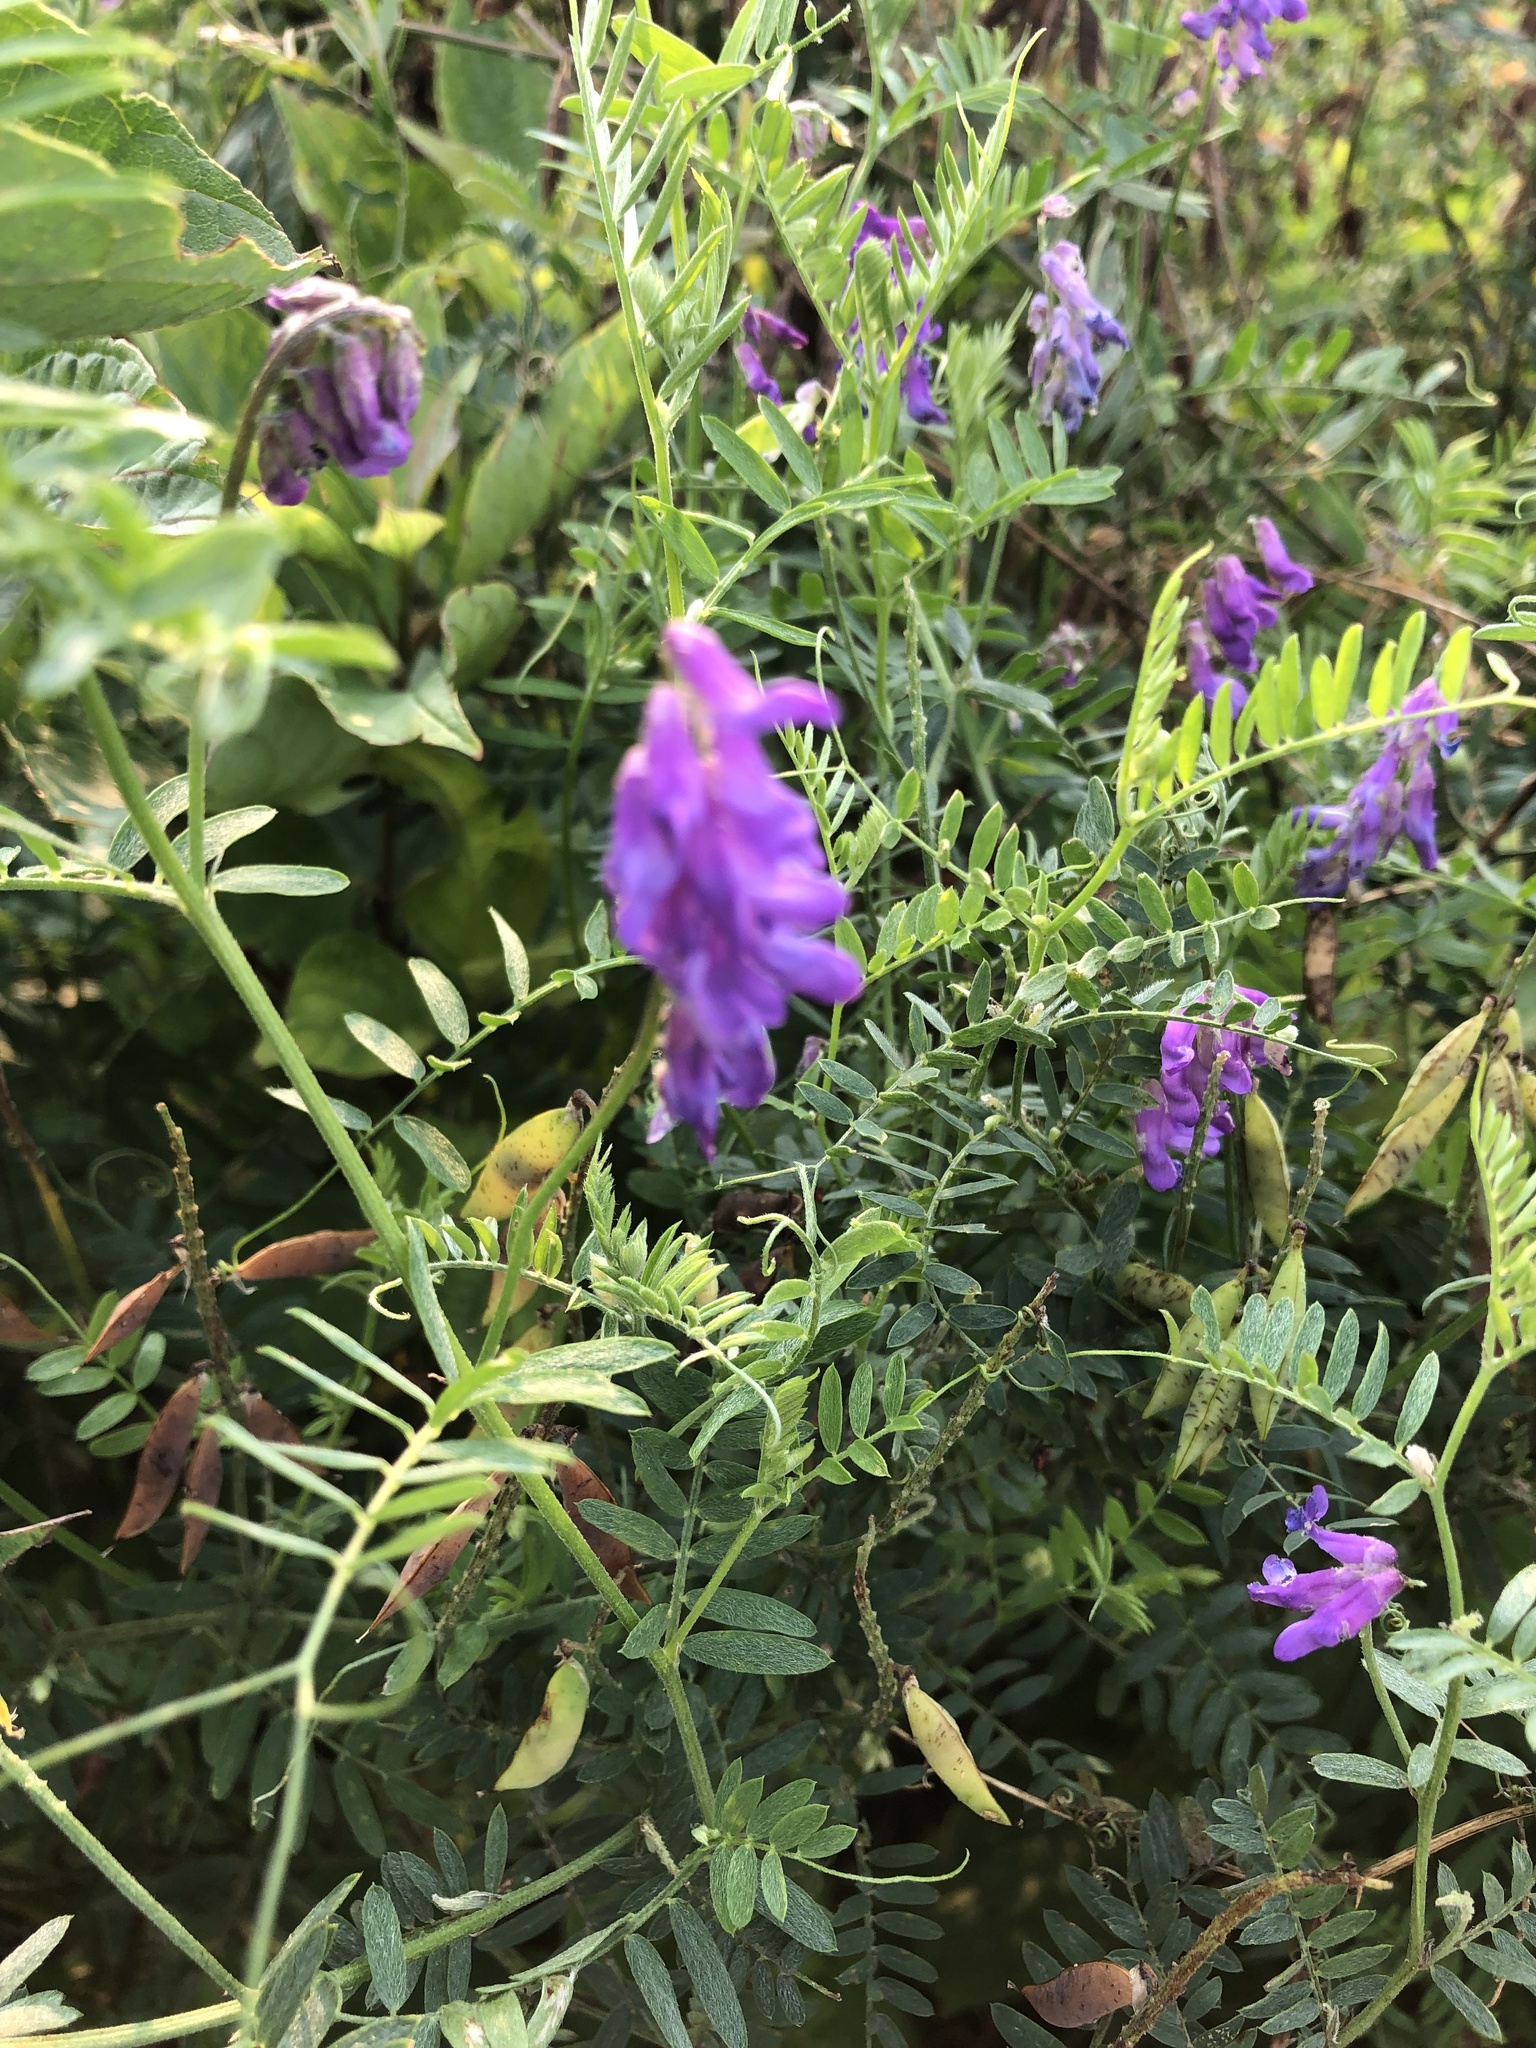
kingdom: Plantae
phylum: Tracheophyta
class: Magnoliopsida
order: Fabales
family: Fabaceae
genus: Vicia
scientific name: Vicia cracca
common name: Bird vetch
